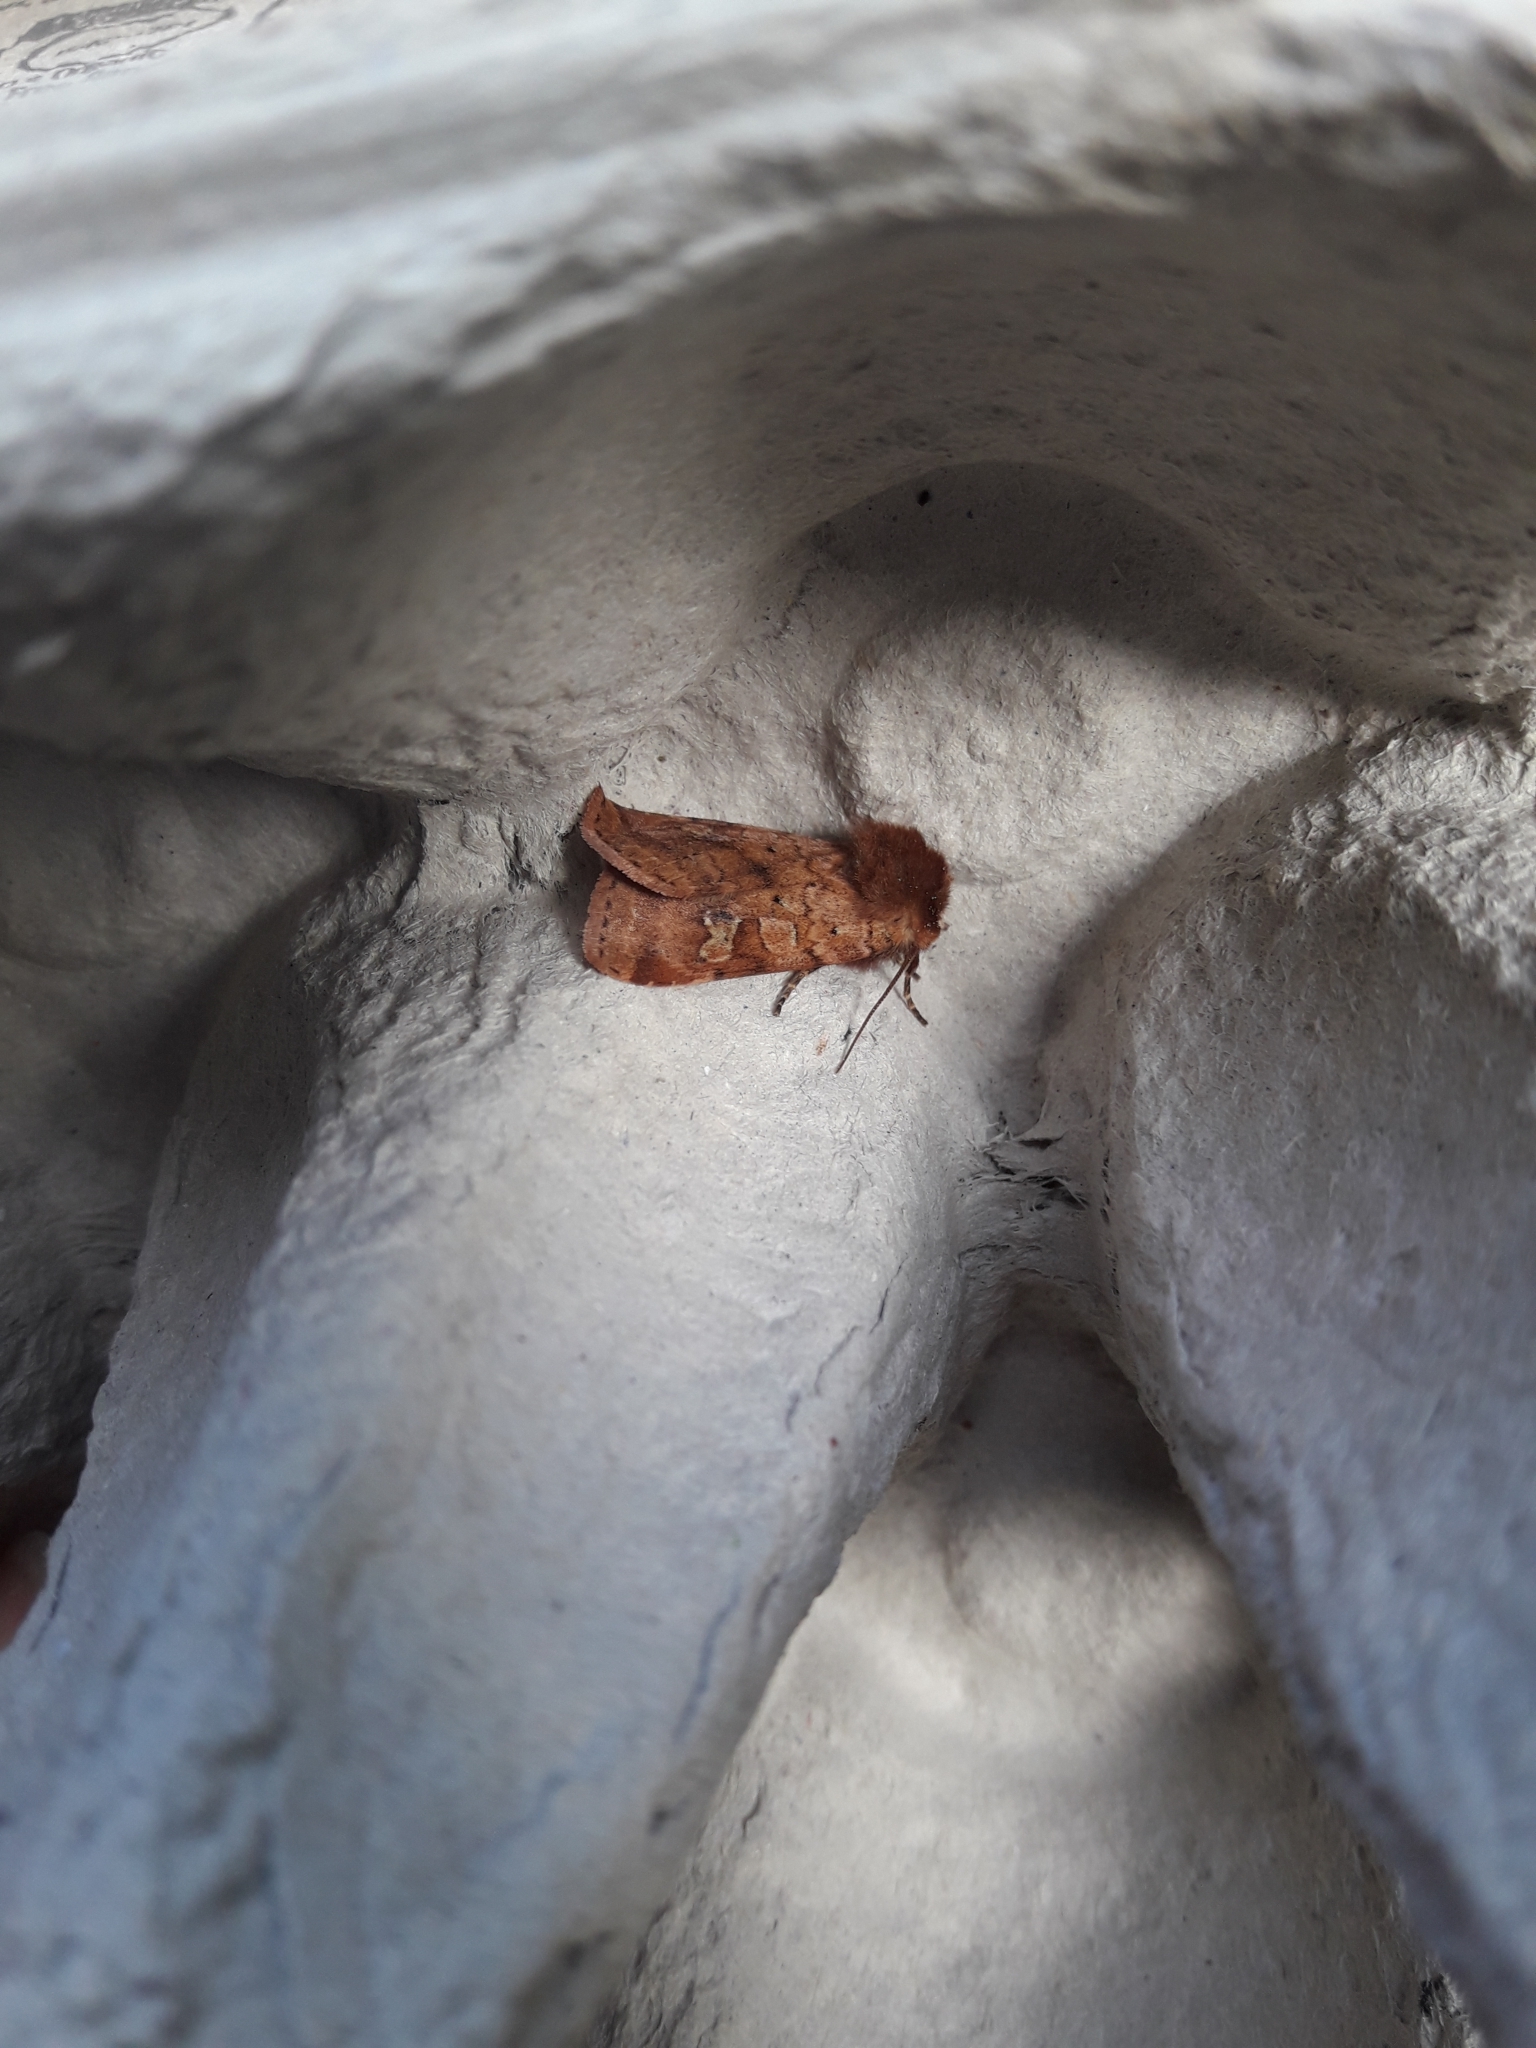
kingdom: Animalia
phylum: Arthropoda
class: Insecta
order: Lepidoptera
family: Noctuidae
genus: Diarsia
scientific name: Diarsia mendica
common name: Ingrailed clay
